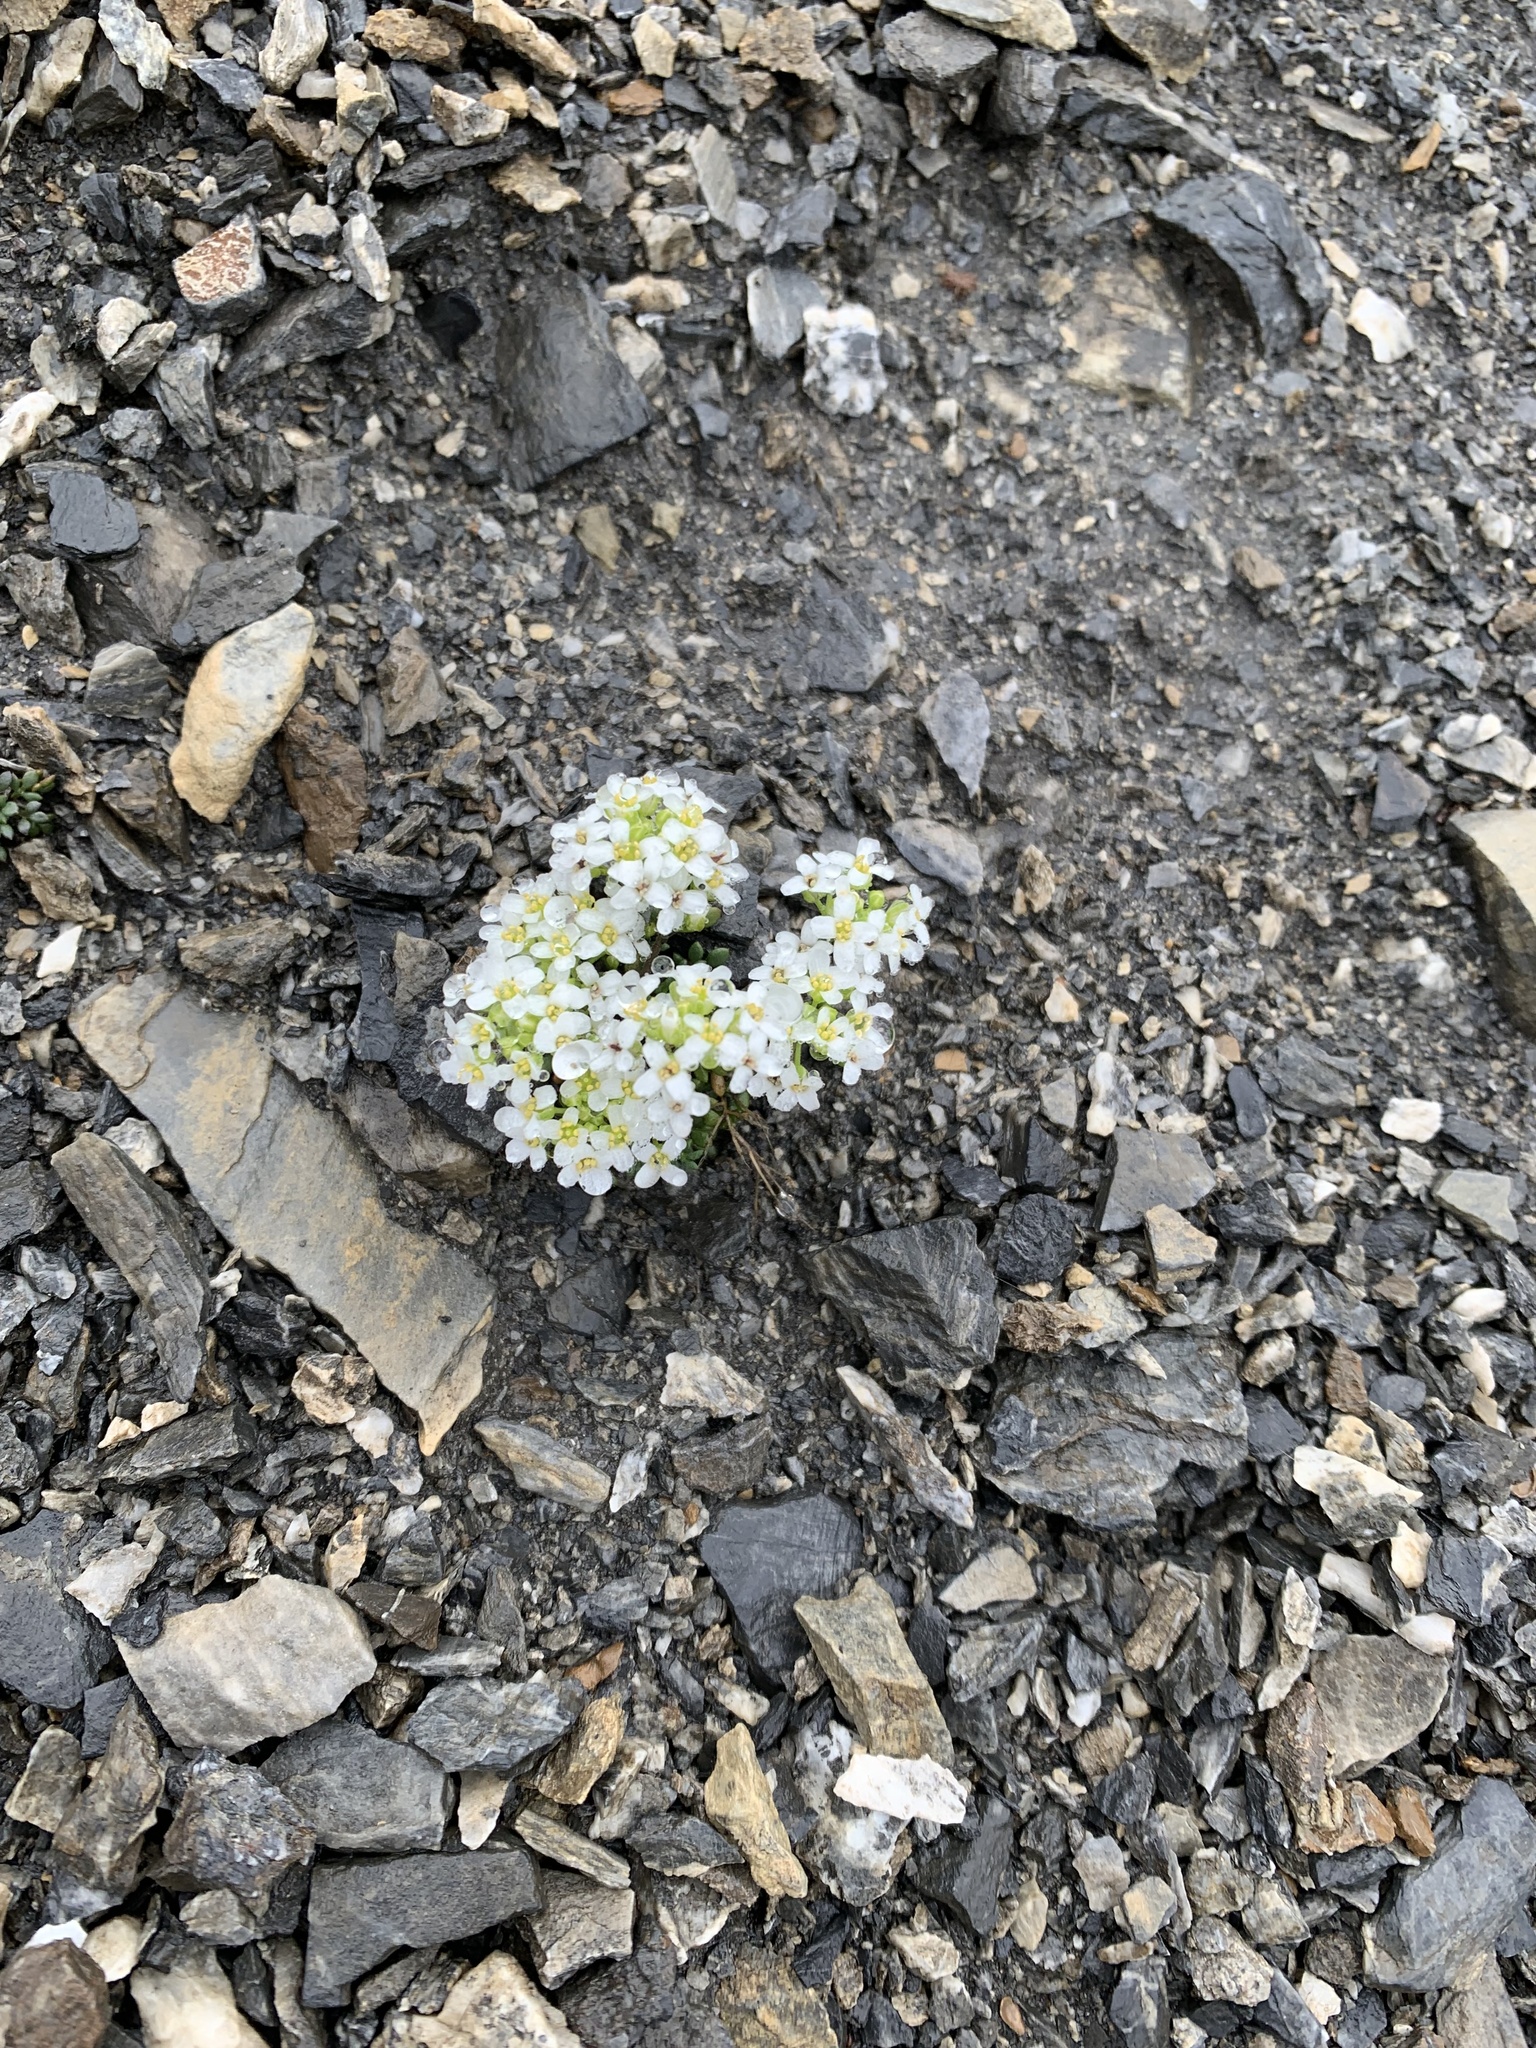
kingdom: Plantae
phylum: Tracheophyta
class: Magnoliopsida
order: Brassicales
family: Brassicaceae
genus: Hornungia
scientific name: Hornungia alpina
